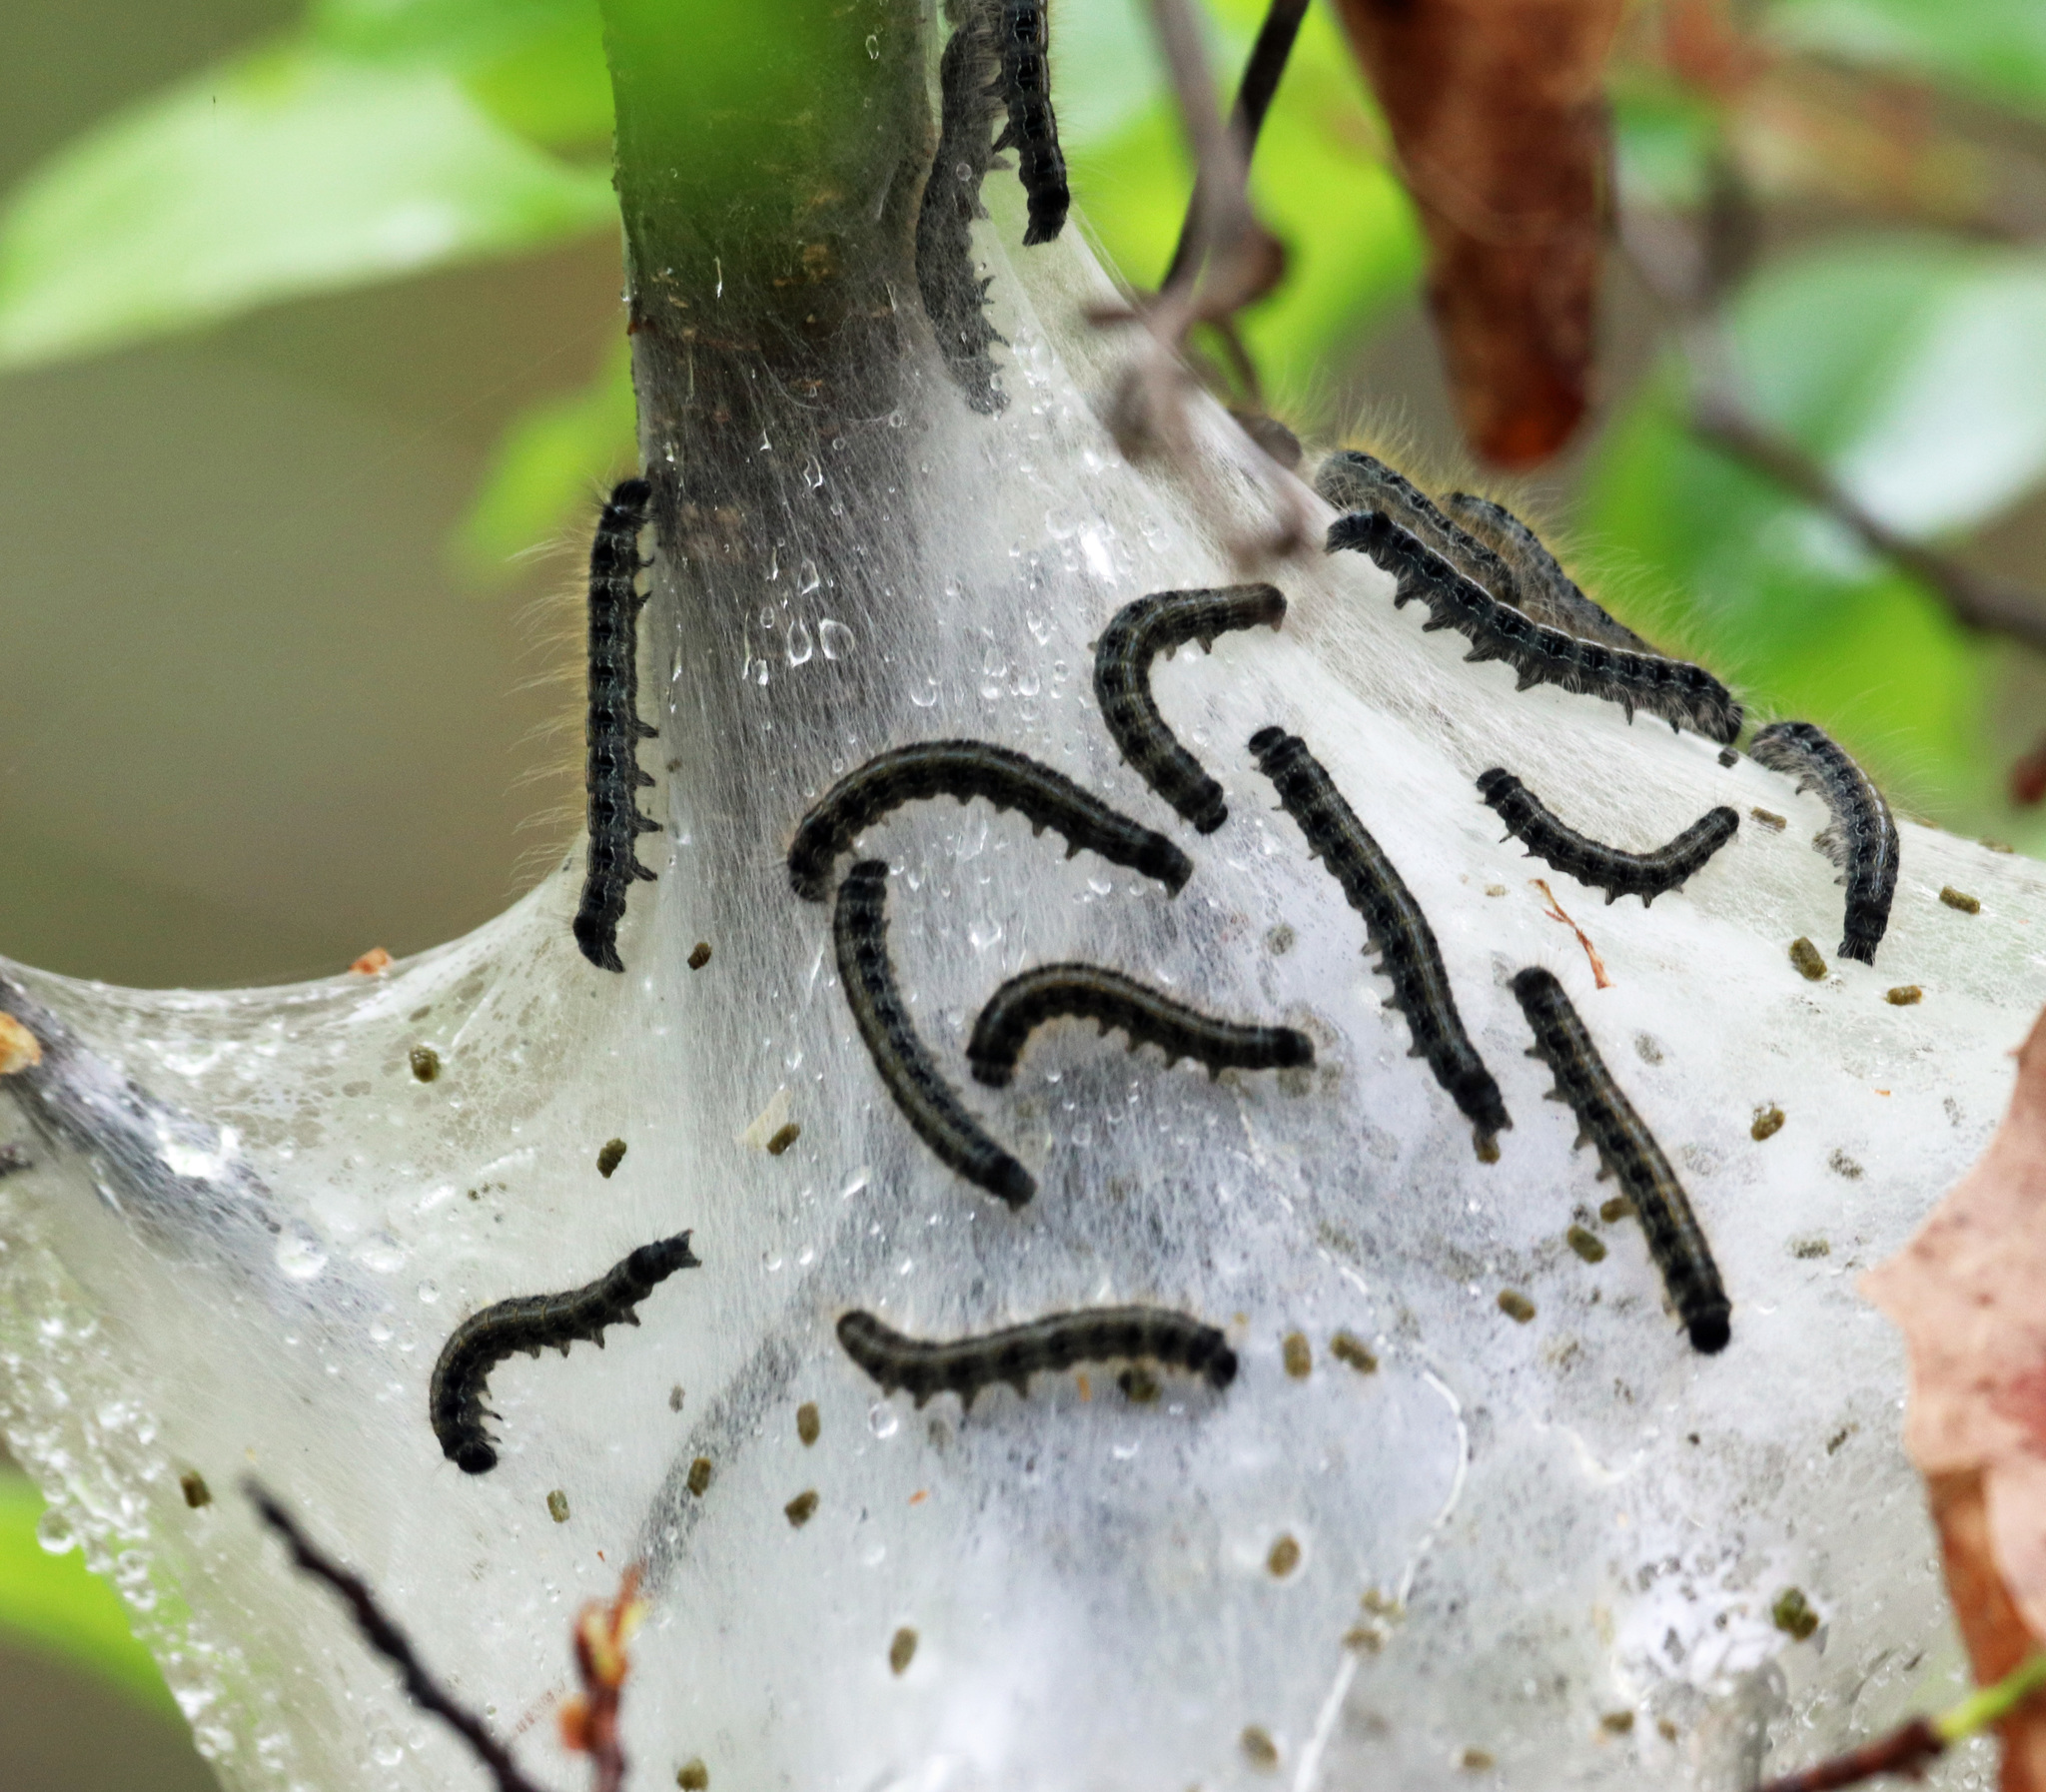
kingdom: Animalia
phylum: Arthropoda
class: Insecta
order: Lepidoptera
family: Lasiocampidae
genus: Malacosoma
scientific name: Malacosoma americana
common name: Eastern tent caterpillar moth
